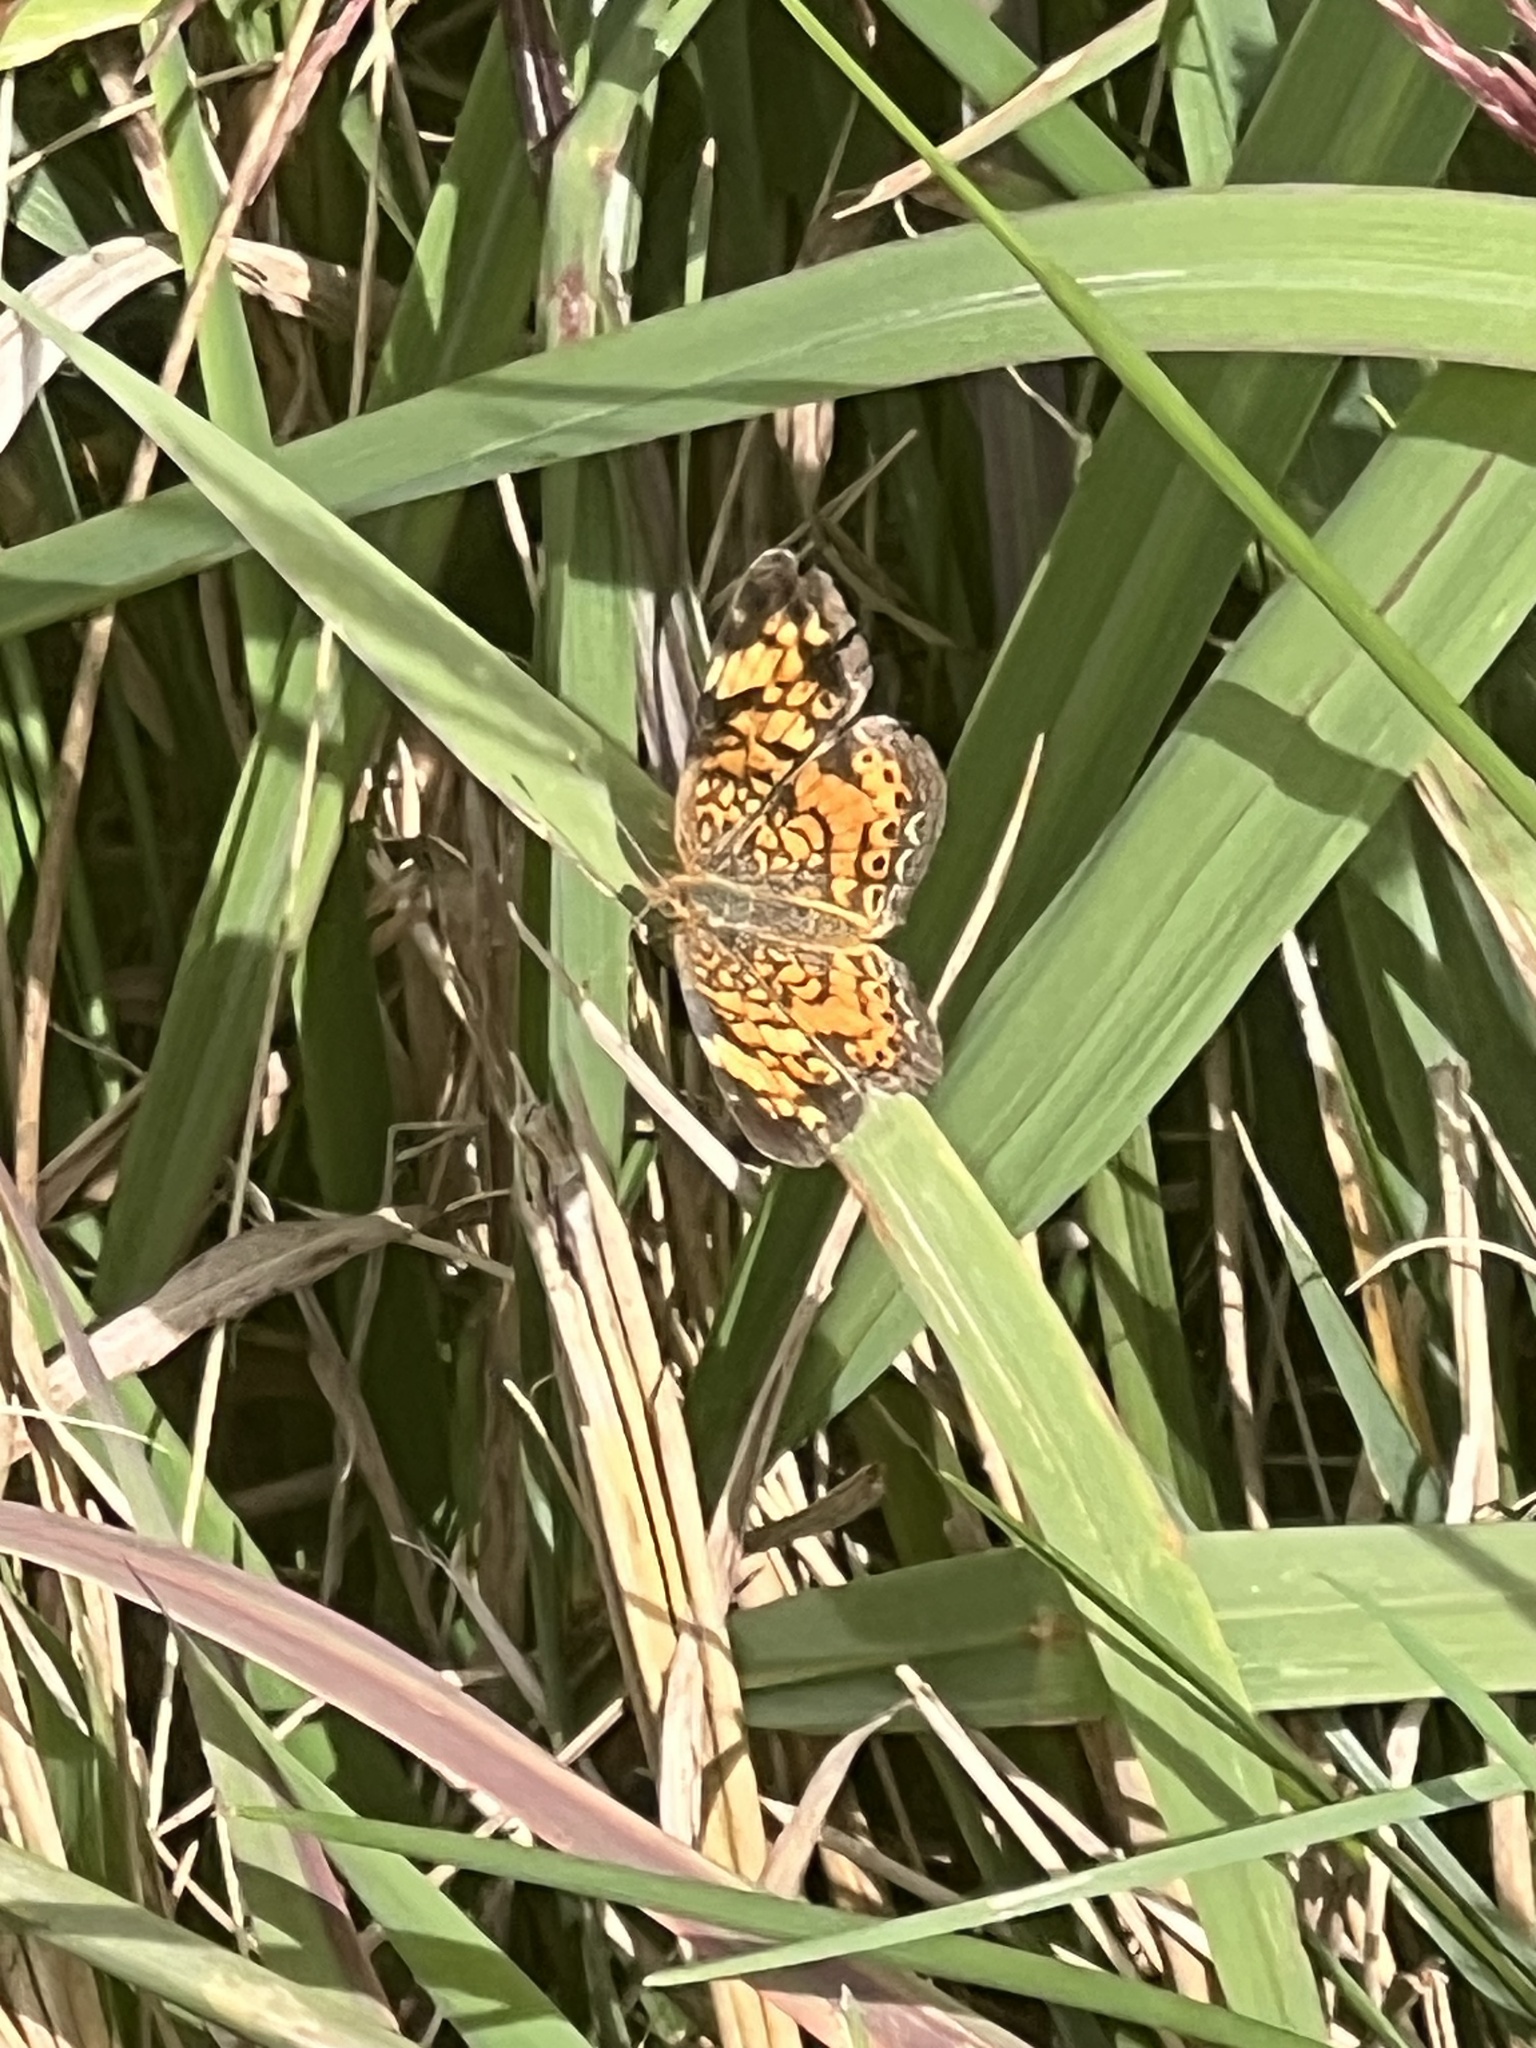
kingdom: Animalia
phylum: Arthropoda
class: Insecta
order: Lepidoptera
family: Nymphalidae
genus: Phyciodes
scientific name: Phyciodes tharos
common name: Pearl crescent
